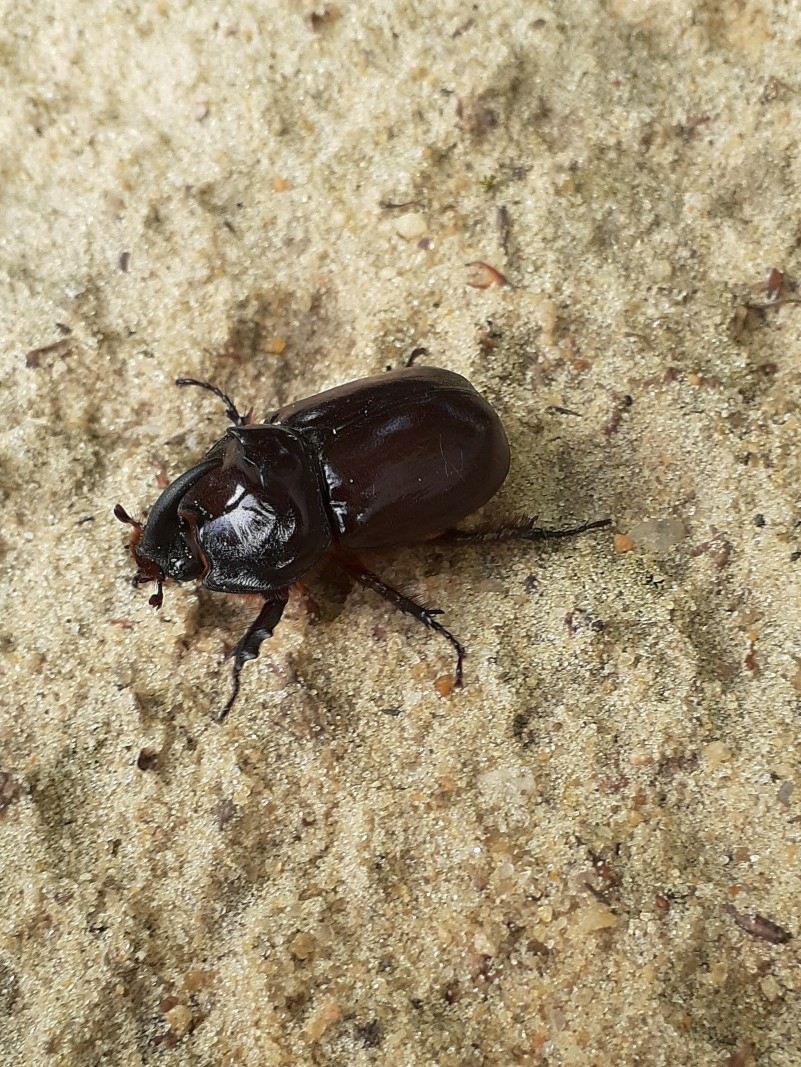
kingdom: Animalia
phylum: Arthropoda
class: Insecta
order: Coleoptera
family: Scarabaeidae
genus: Oryctes
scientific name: Oryctes nasicornis
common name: European rhinoceros beetle
